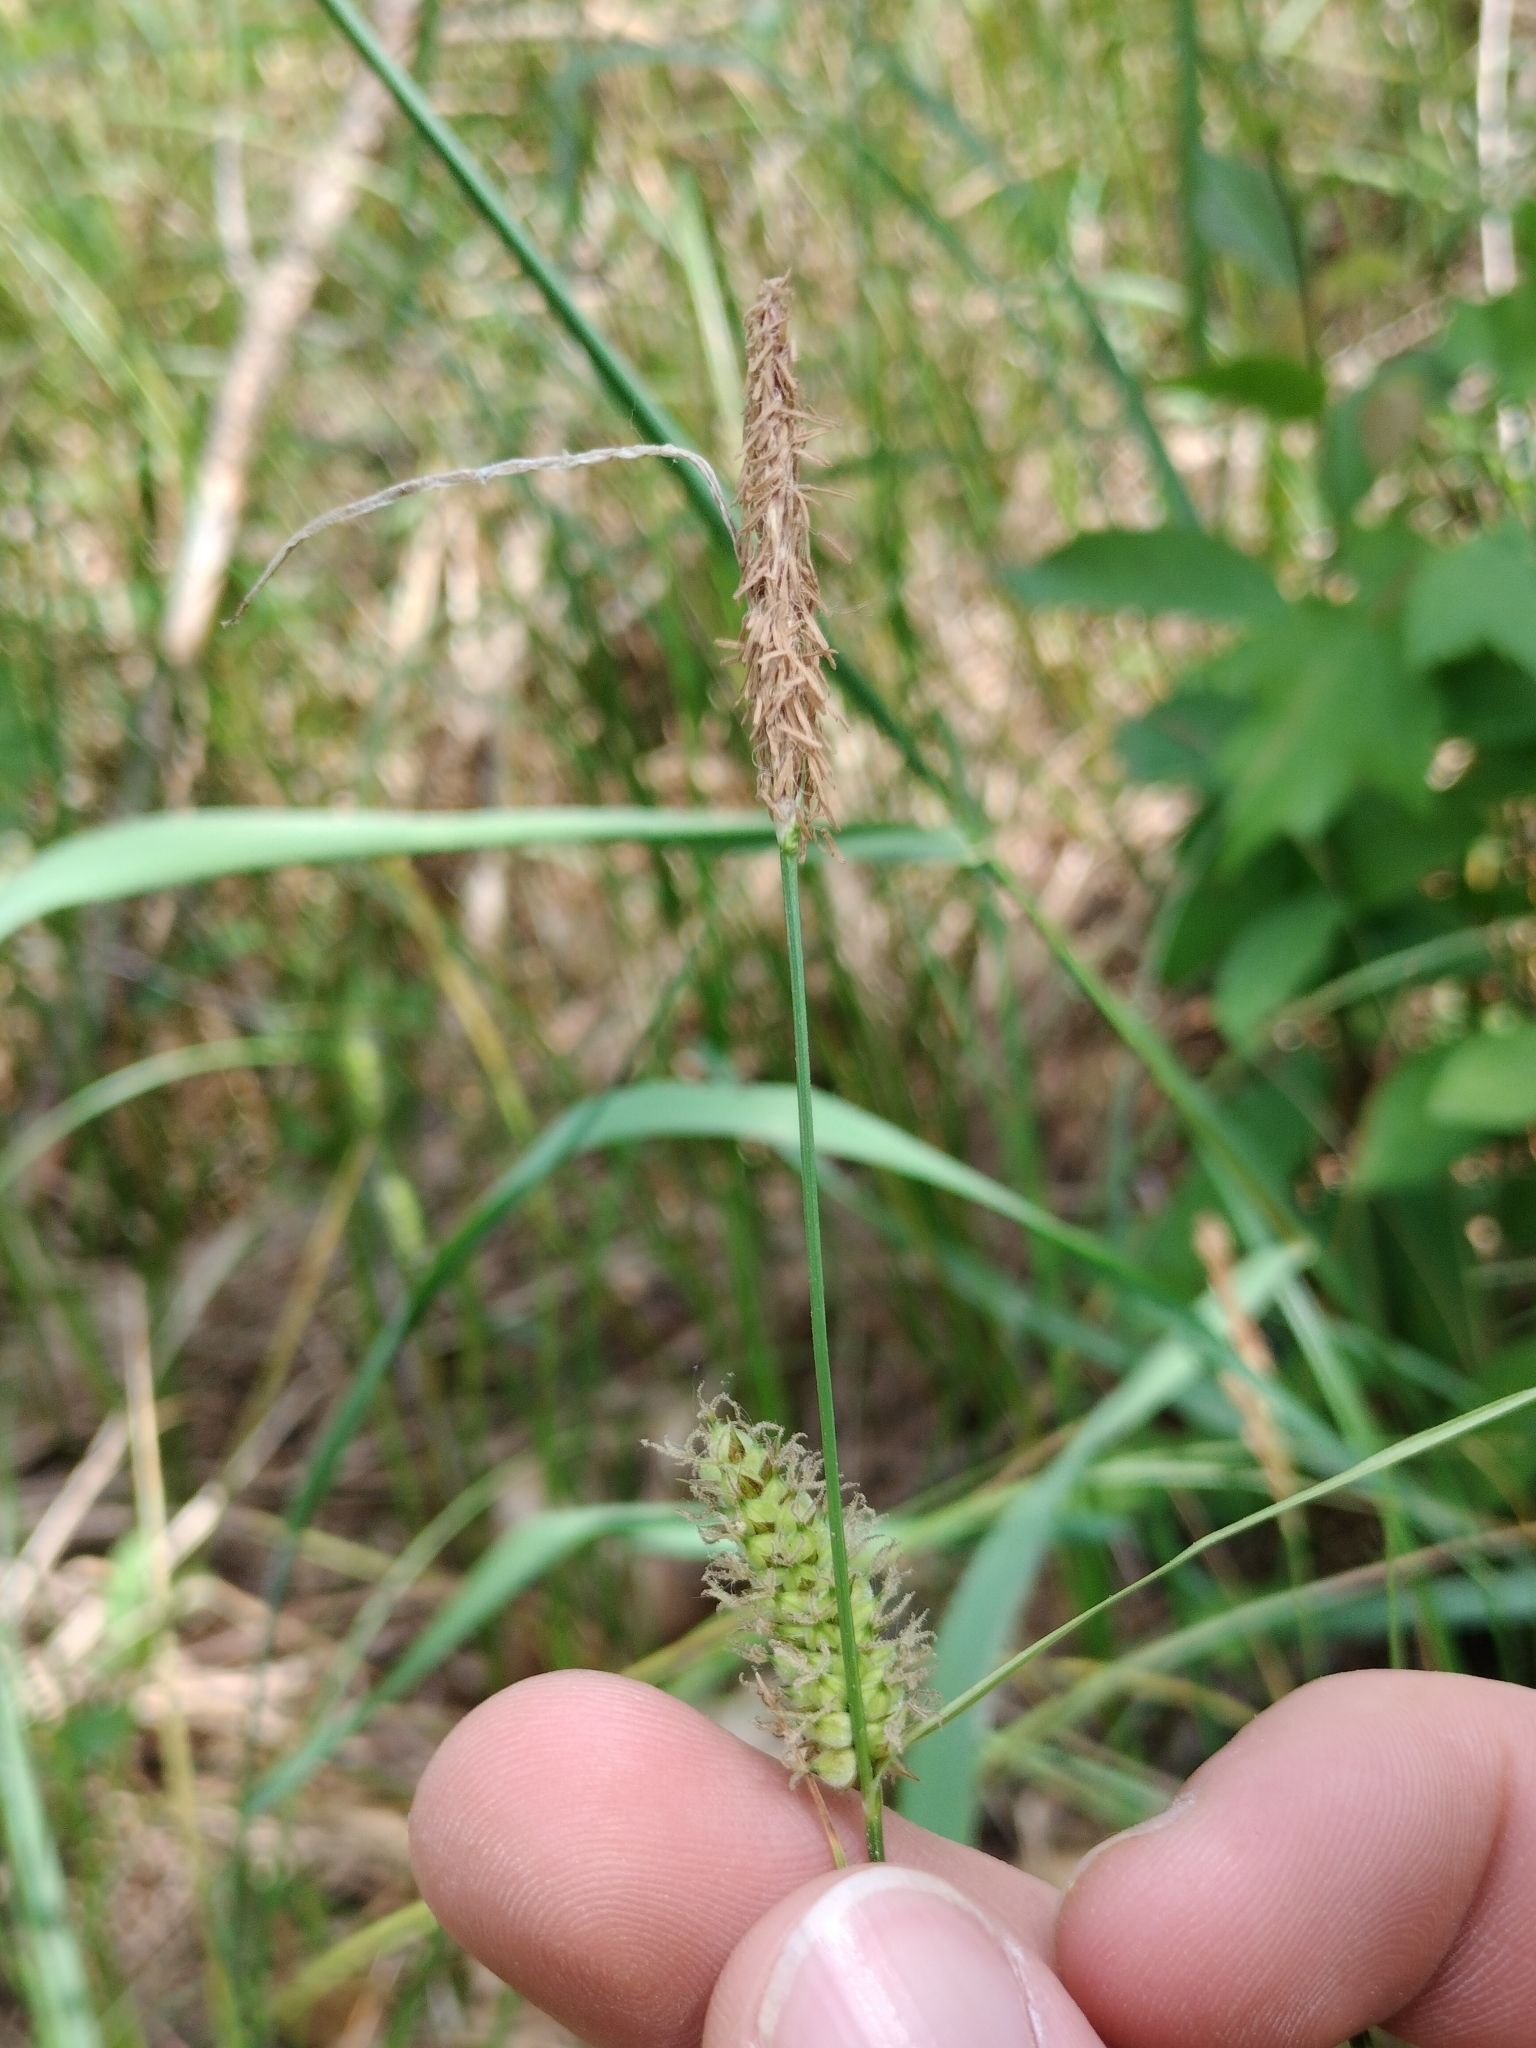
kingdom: Plantae
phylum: Tracheophyta
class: Liliopsida
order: Poales
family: Cyperaceae
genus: Carex
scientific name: Carex pellita
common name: Woolly sedge
